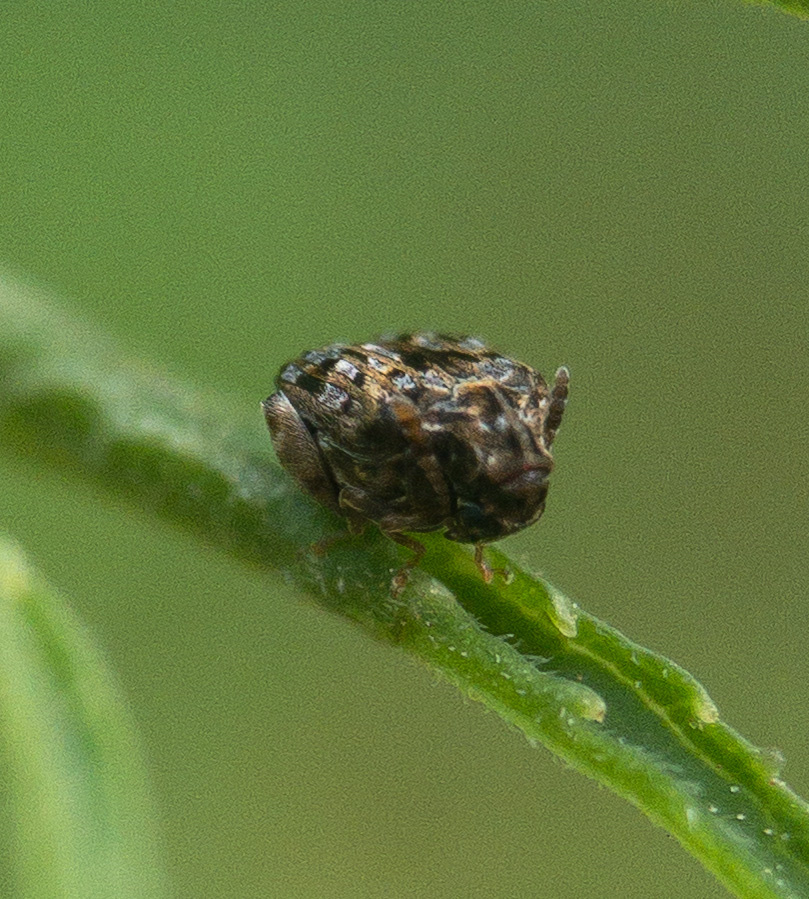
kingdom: Animalia
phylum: Arthropoda
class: Insecta
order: Coleoptera
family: Chrysomelidae
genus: Gibbobruchus
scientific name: Gibbobruchus mimus
